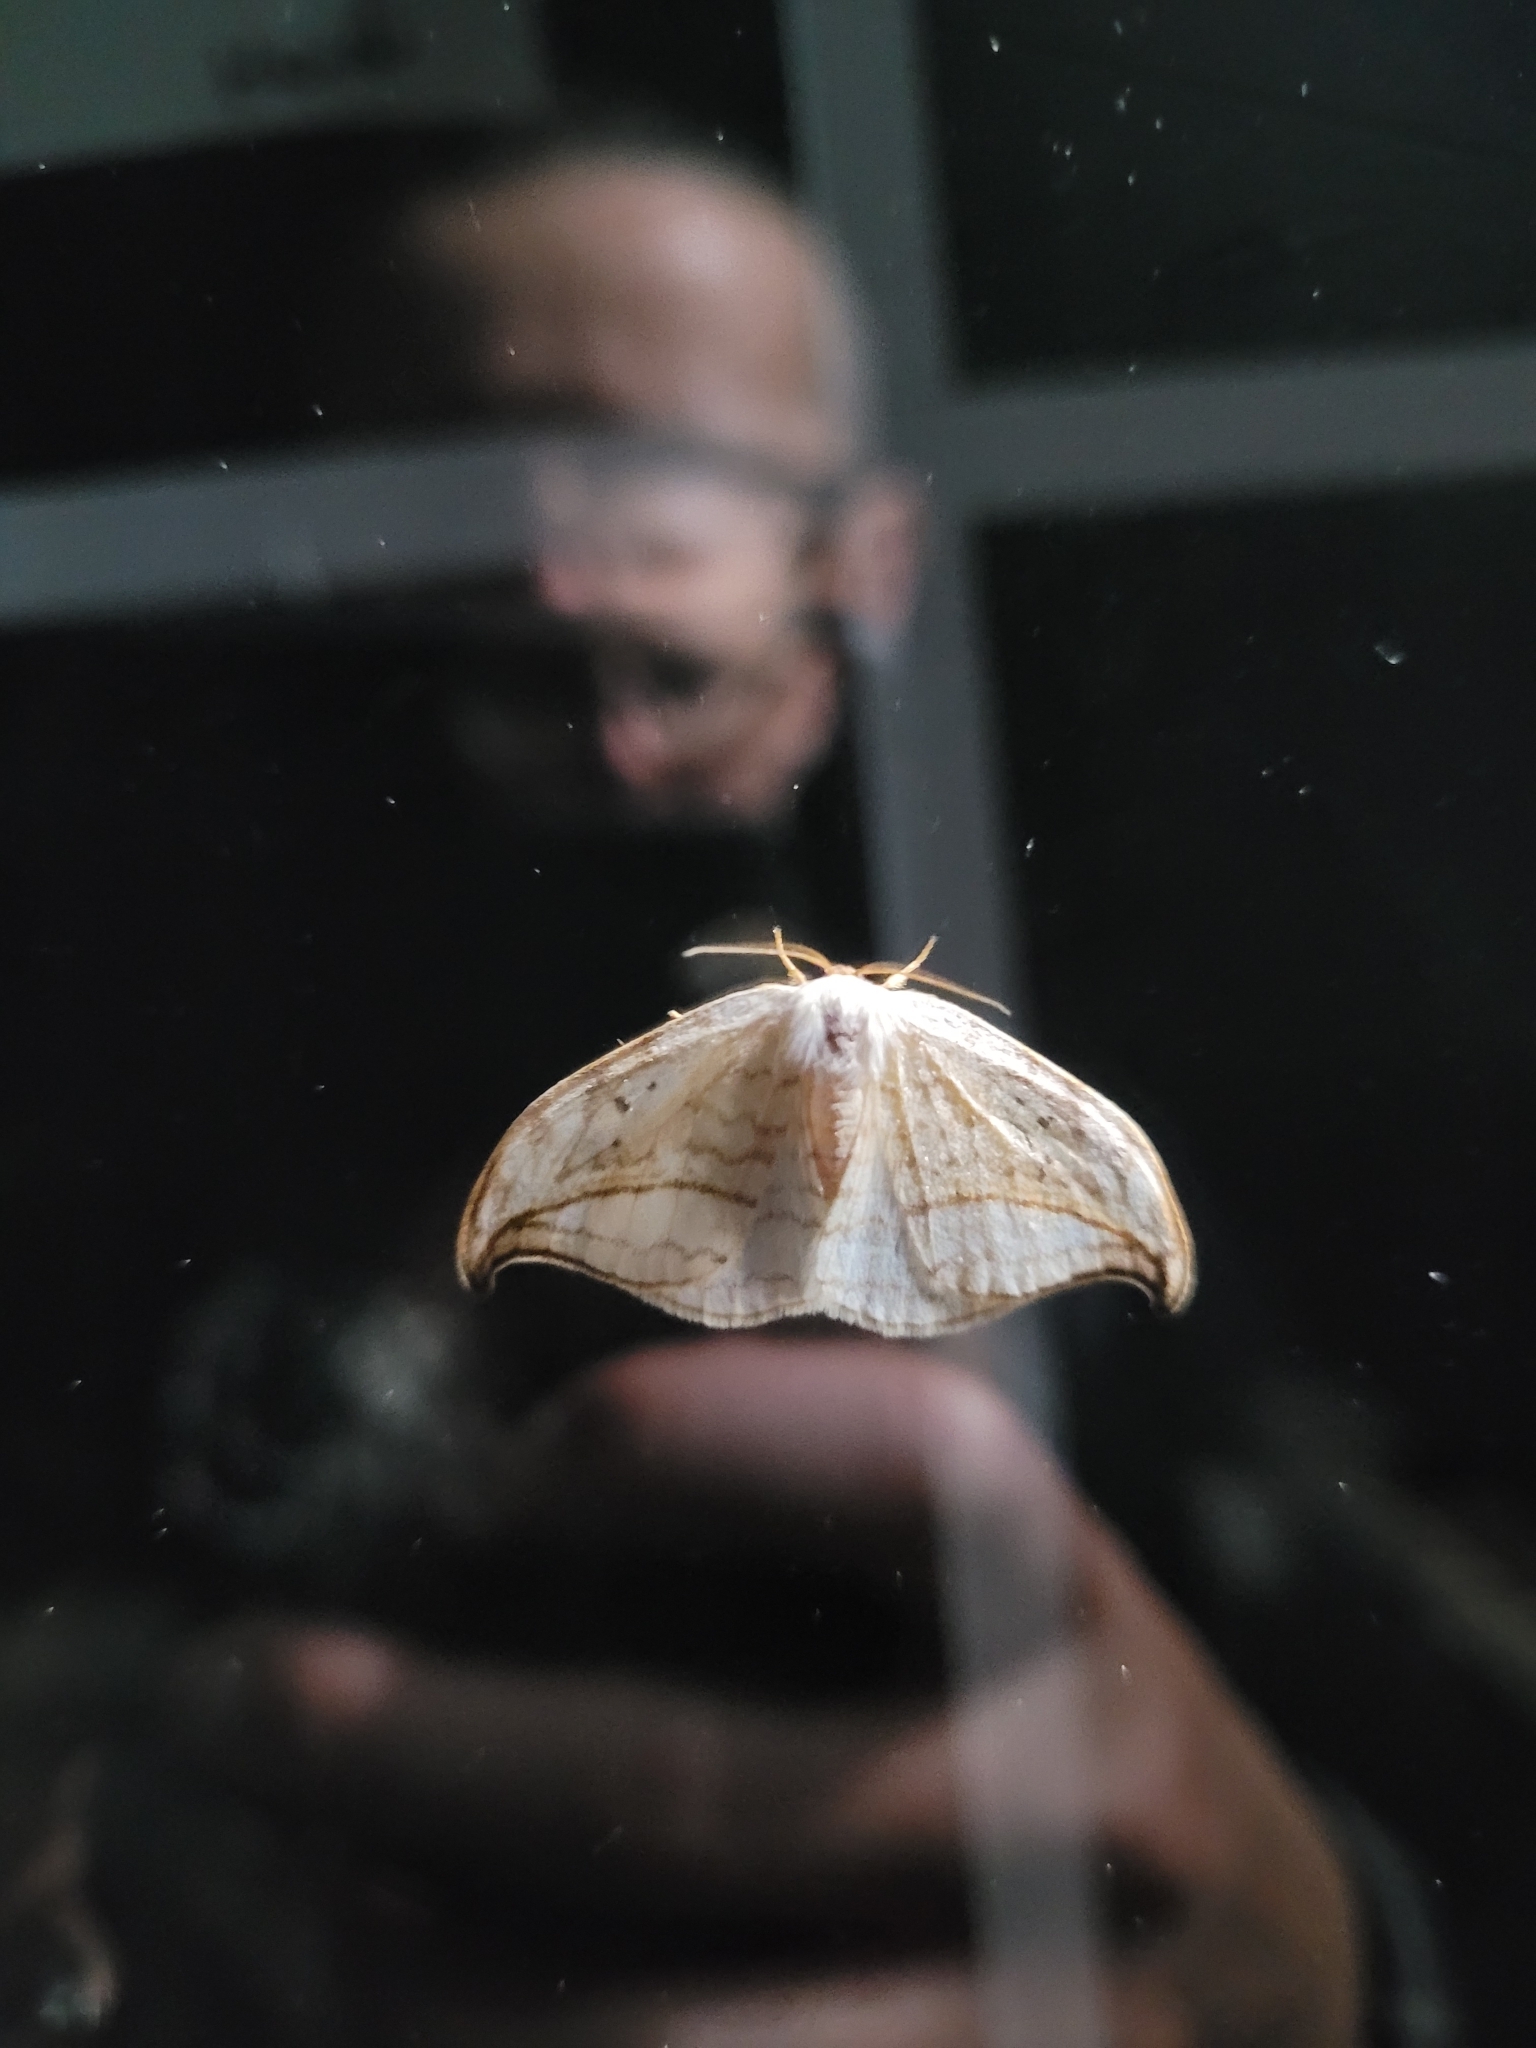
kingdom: Animalia
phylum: Arthropoda
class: Insecta
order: Lepidoptera
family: Drepanidae
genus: Drepana
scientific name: Drepana arcuata
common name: Arched hooktip moth
